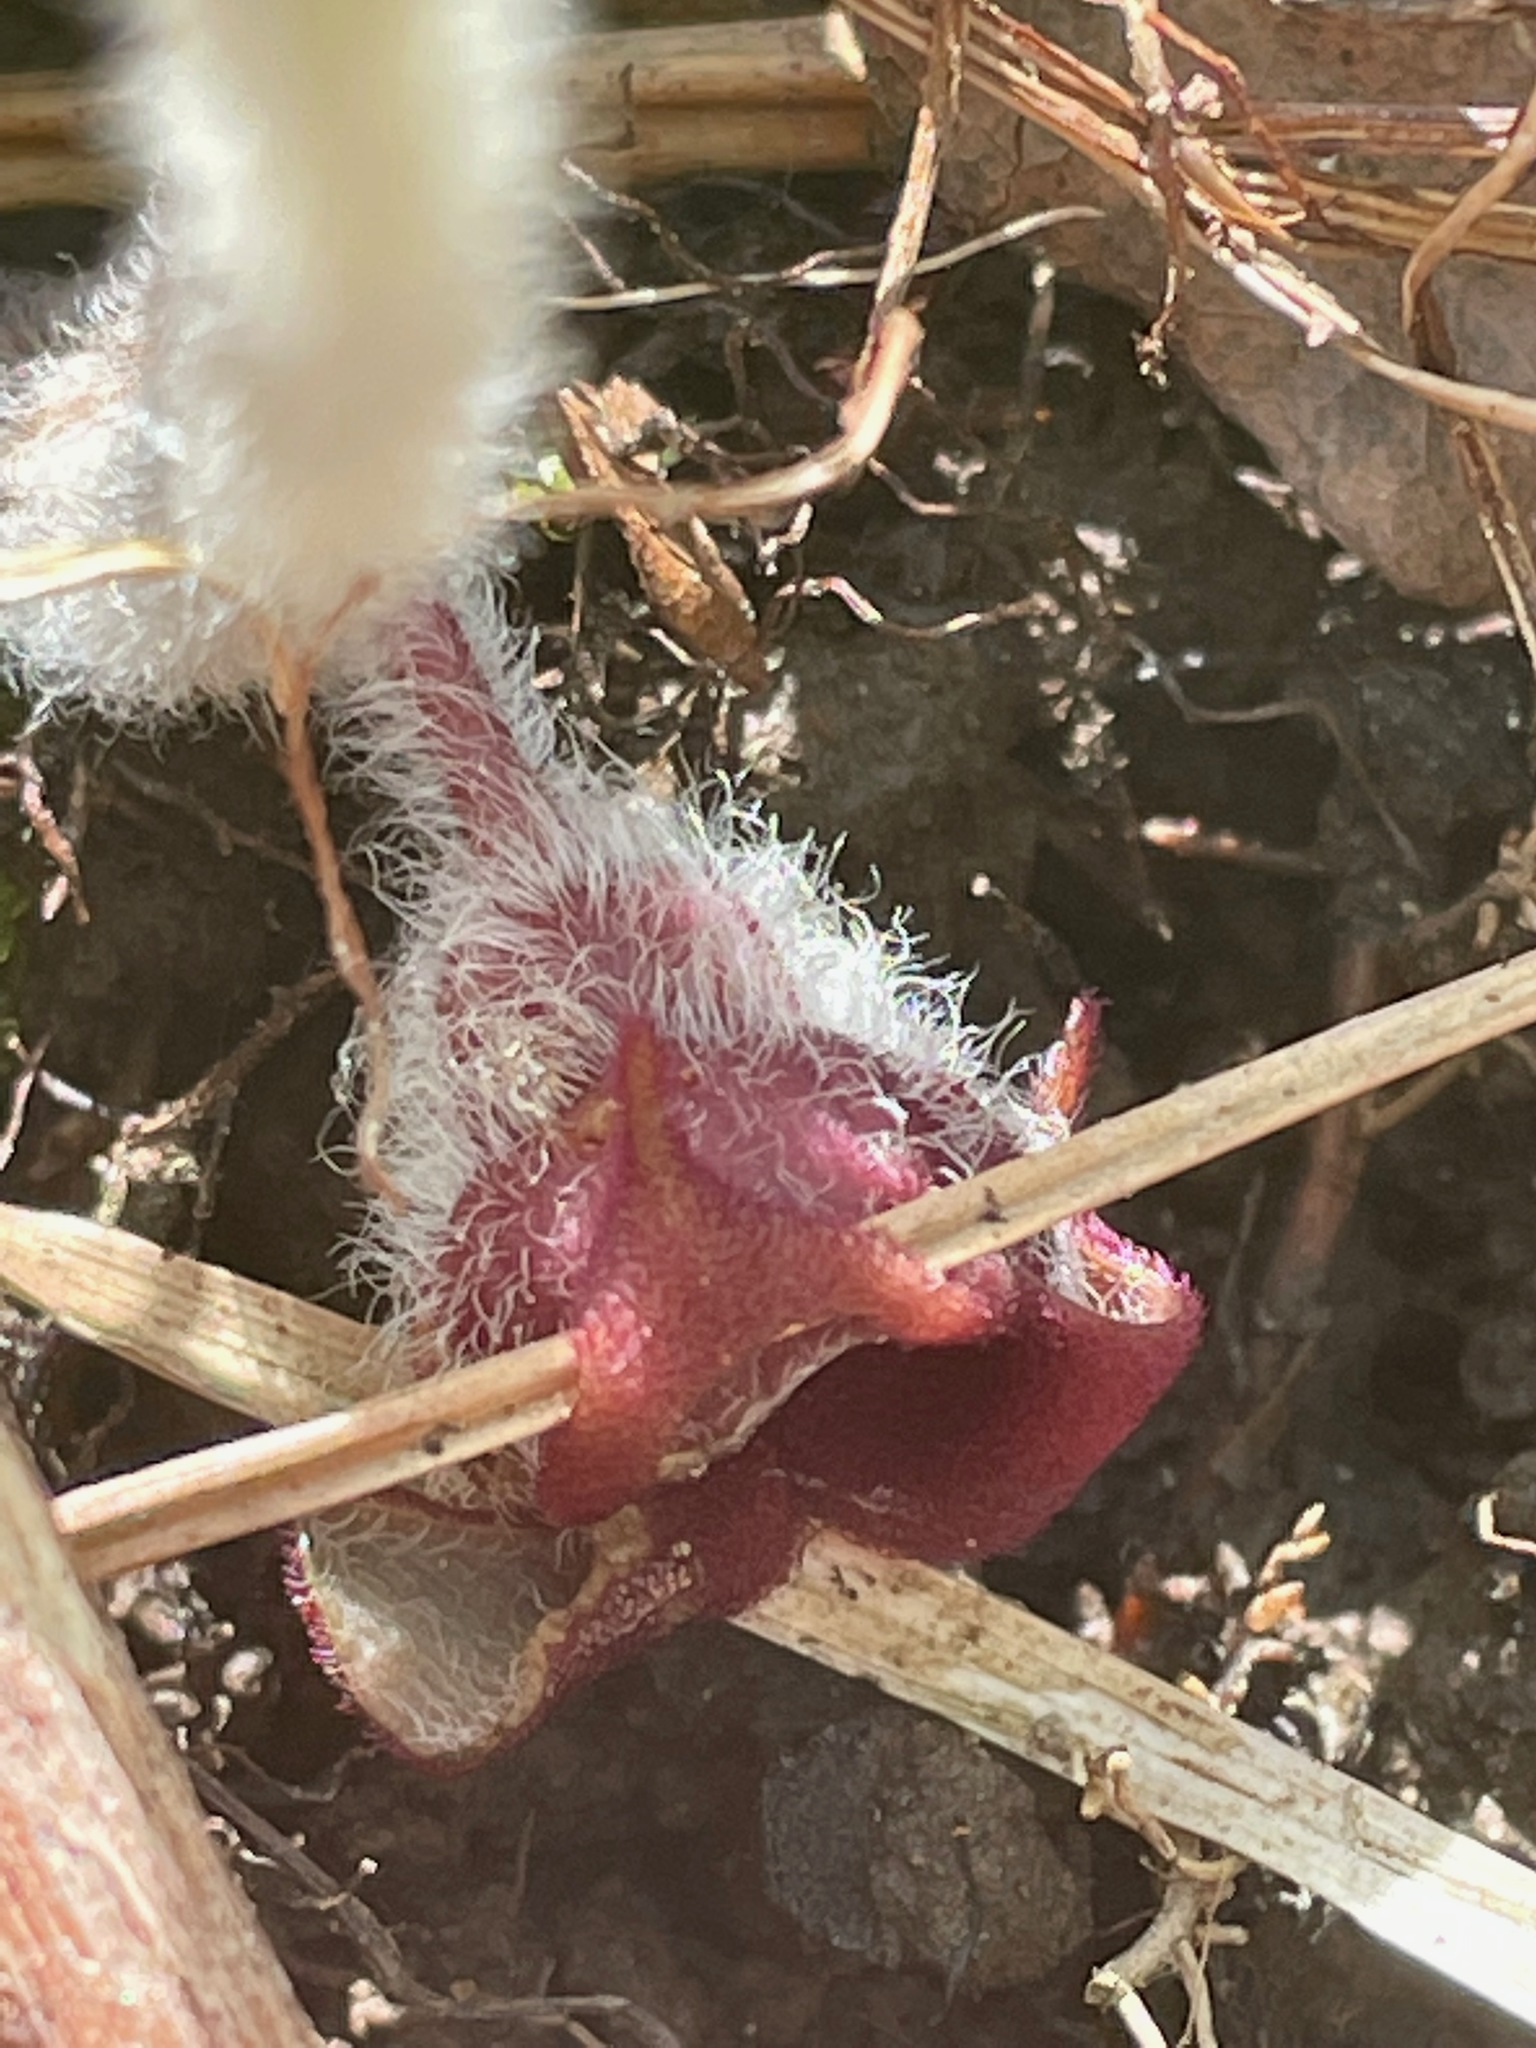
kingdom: Plantae
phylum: Tracheophyta
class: Magnoliopsida
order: Piperales
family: Aristolochiaceae
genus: Asarum
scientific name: Asarum canadense
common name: Wild ginger
